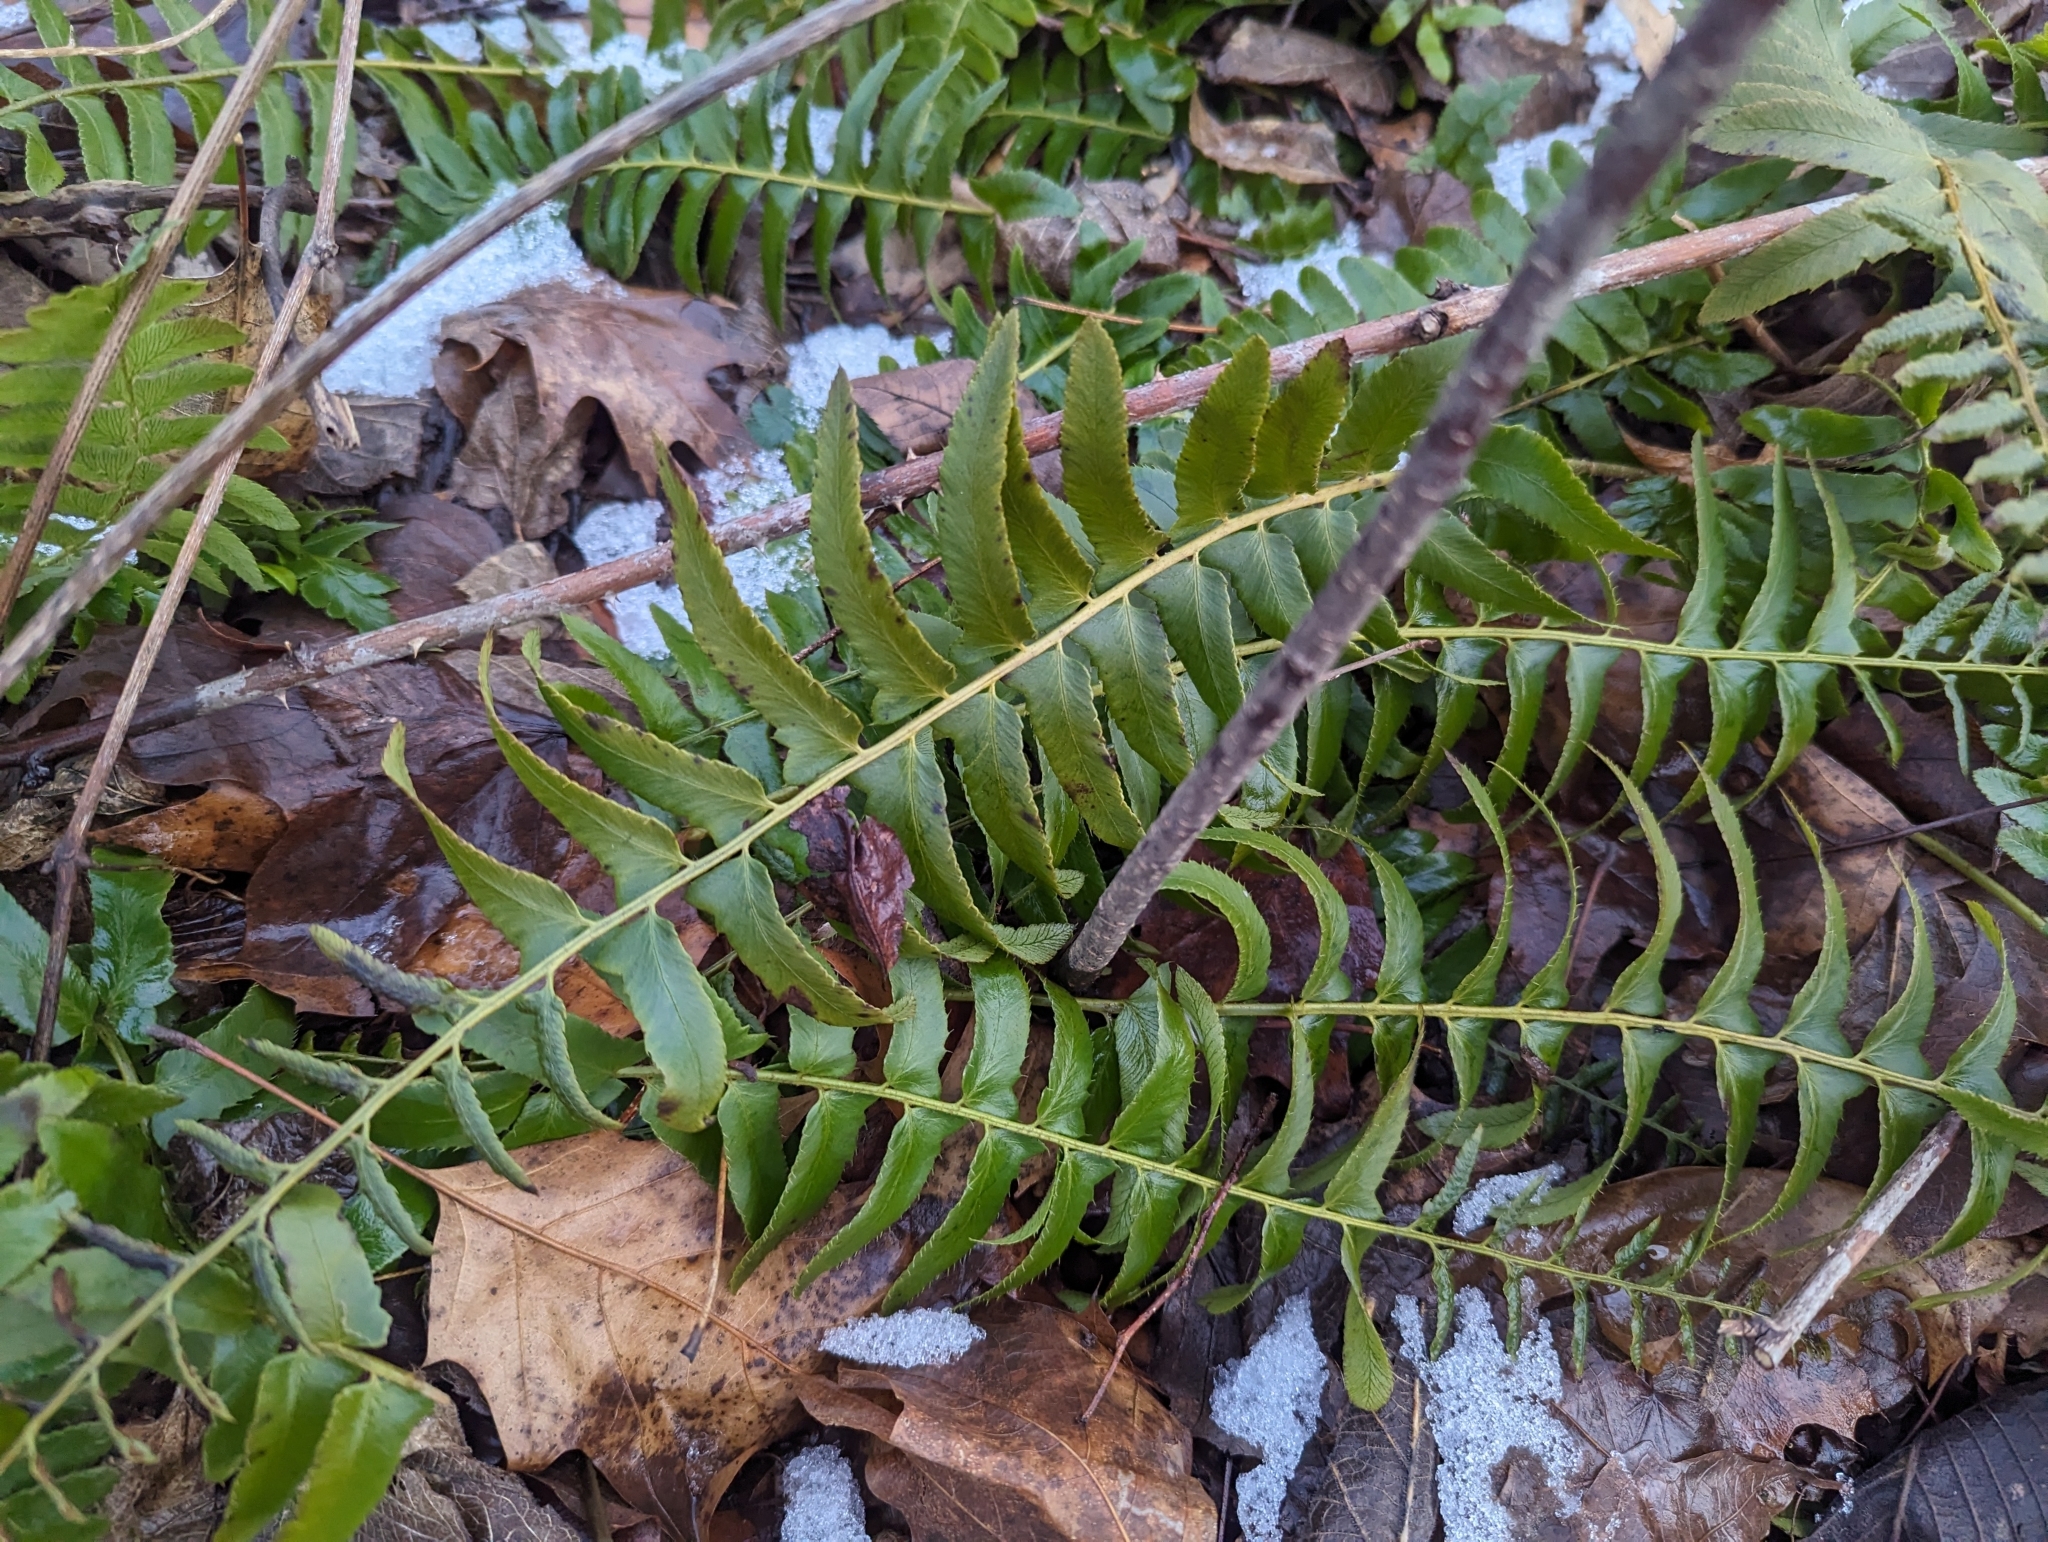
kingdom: Plantae
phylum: Tracheophyta
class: Polypodiopsida
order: Polypodiales
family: Dryopteridaceae
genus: Polystichum
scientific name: Polystichum acrostichoides
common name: Christmas fern
